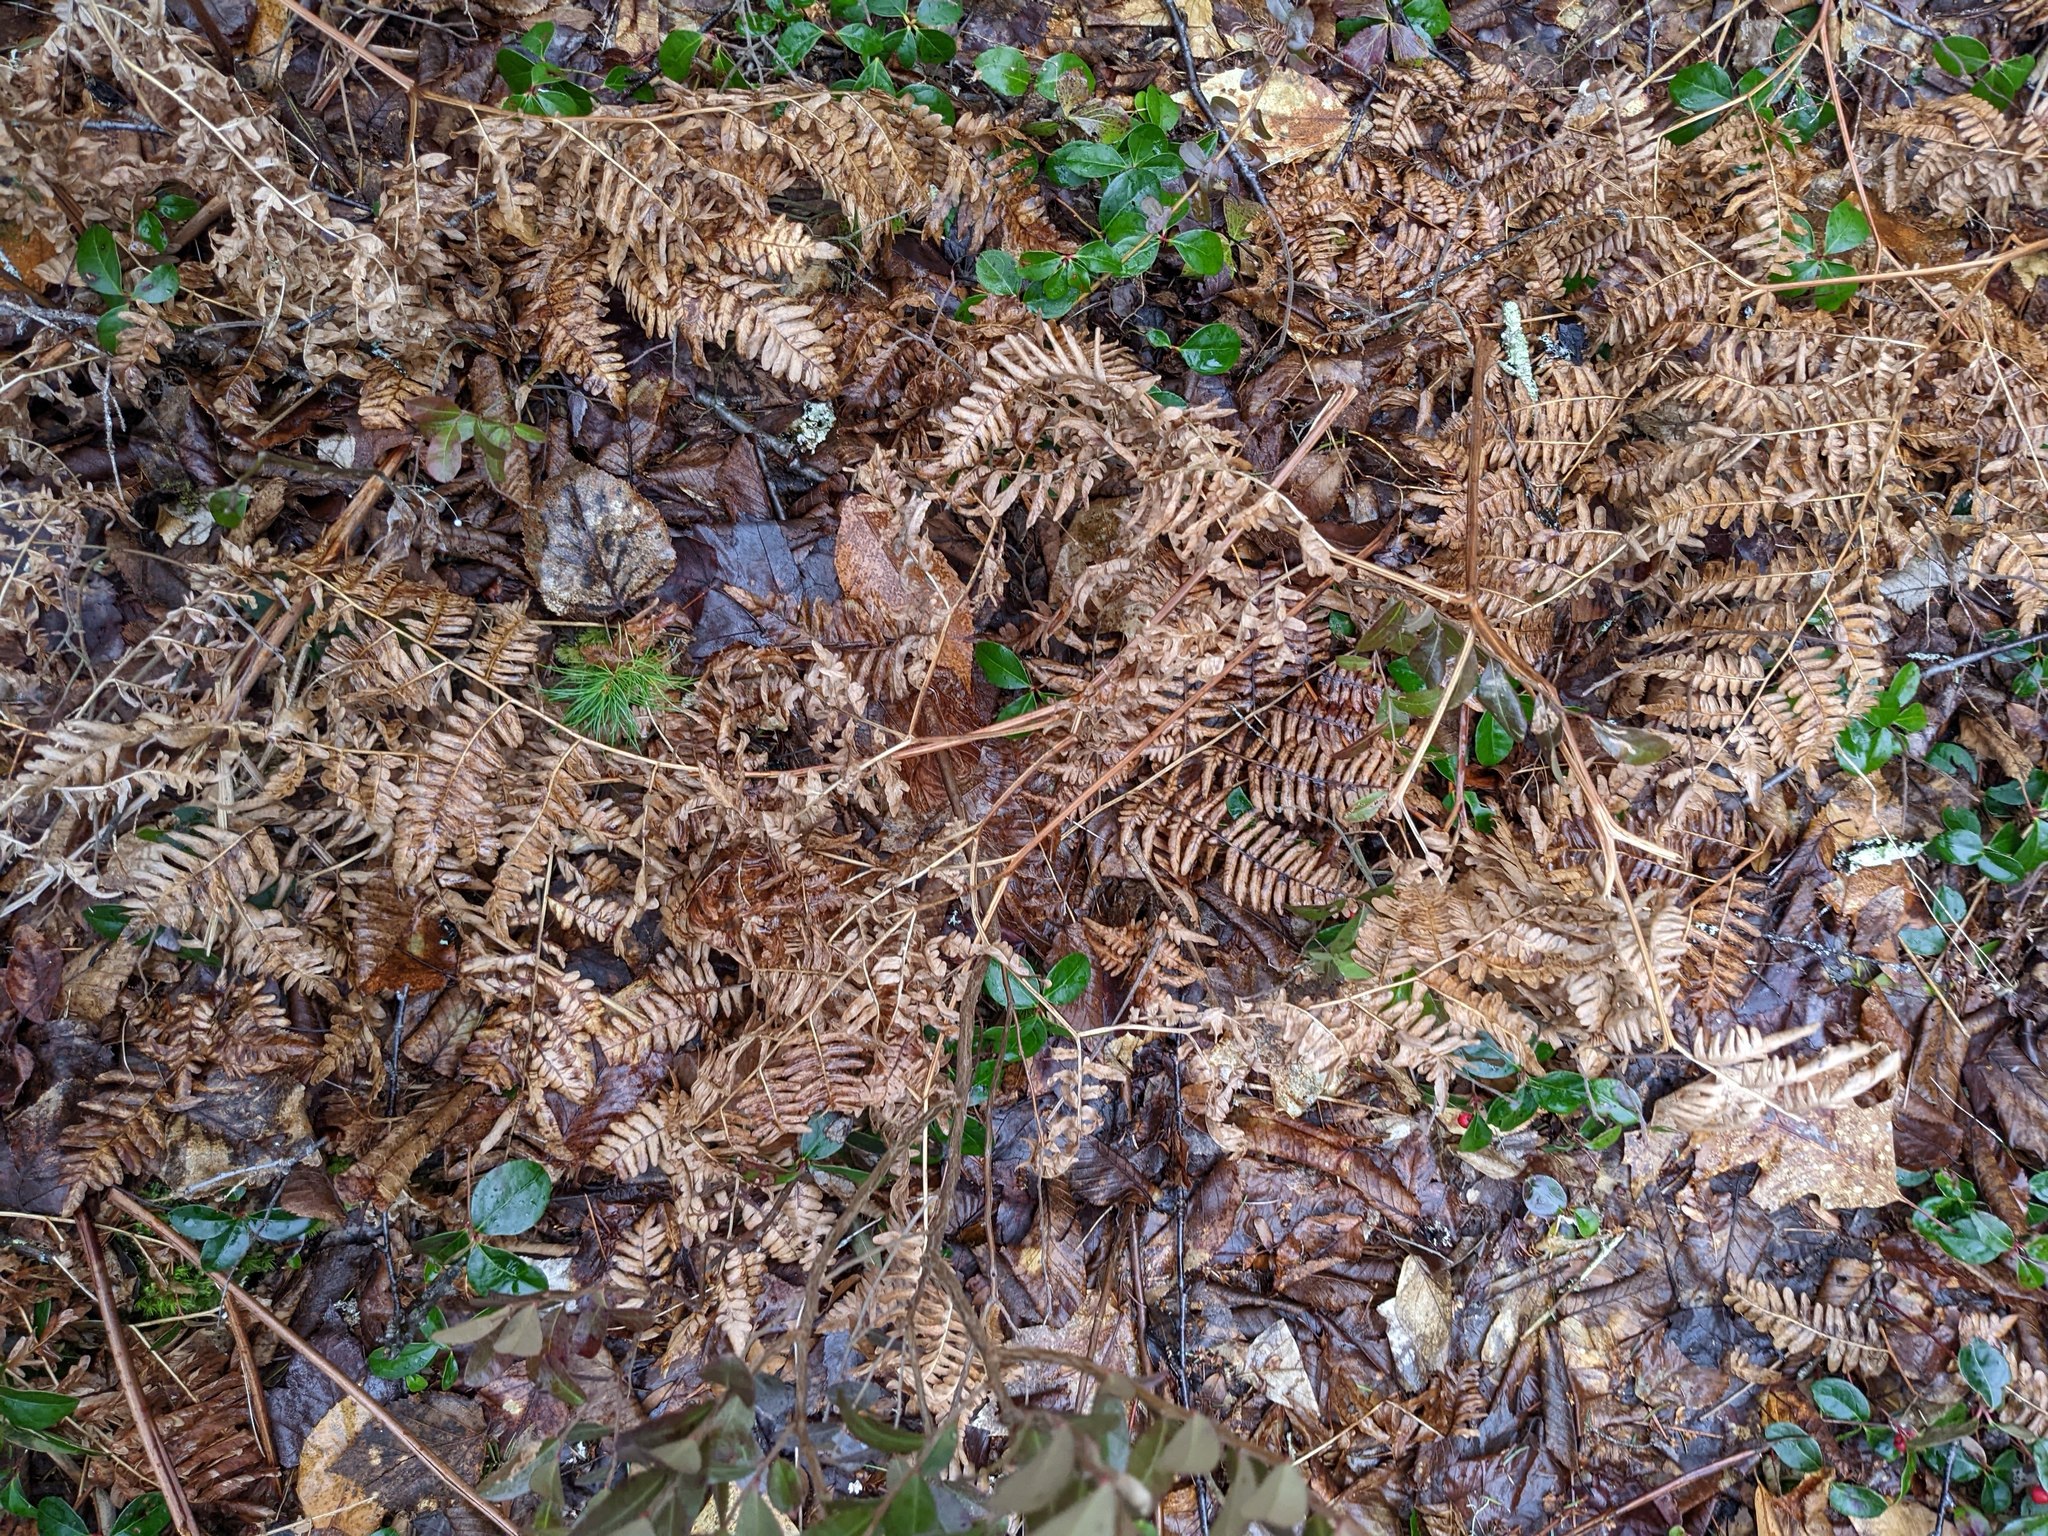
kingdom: Plantae
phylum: Tracheophyta
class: Polypodiopsida
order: Polypodiales
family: Dennstaedtiaceae
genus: Pteridium
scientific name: Pteridium aquilinum
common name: Bracken
